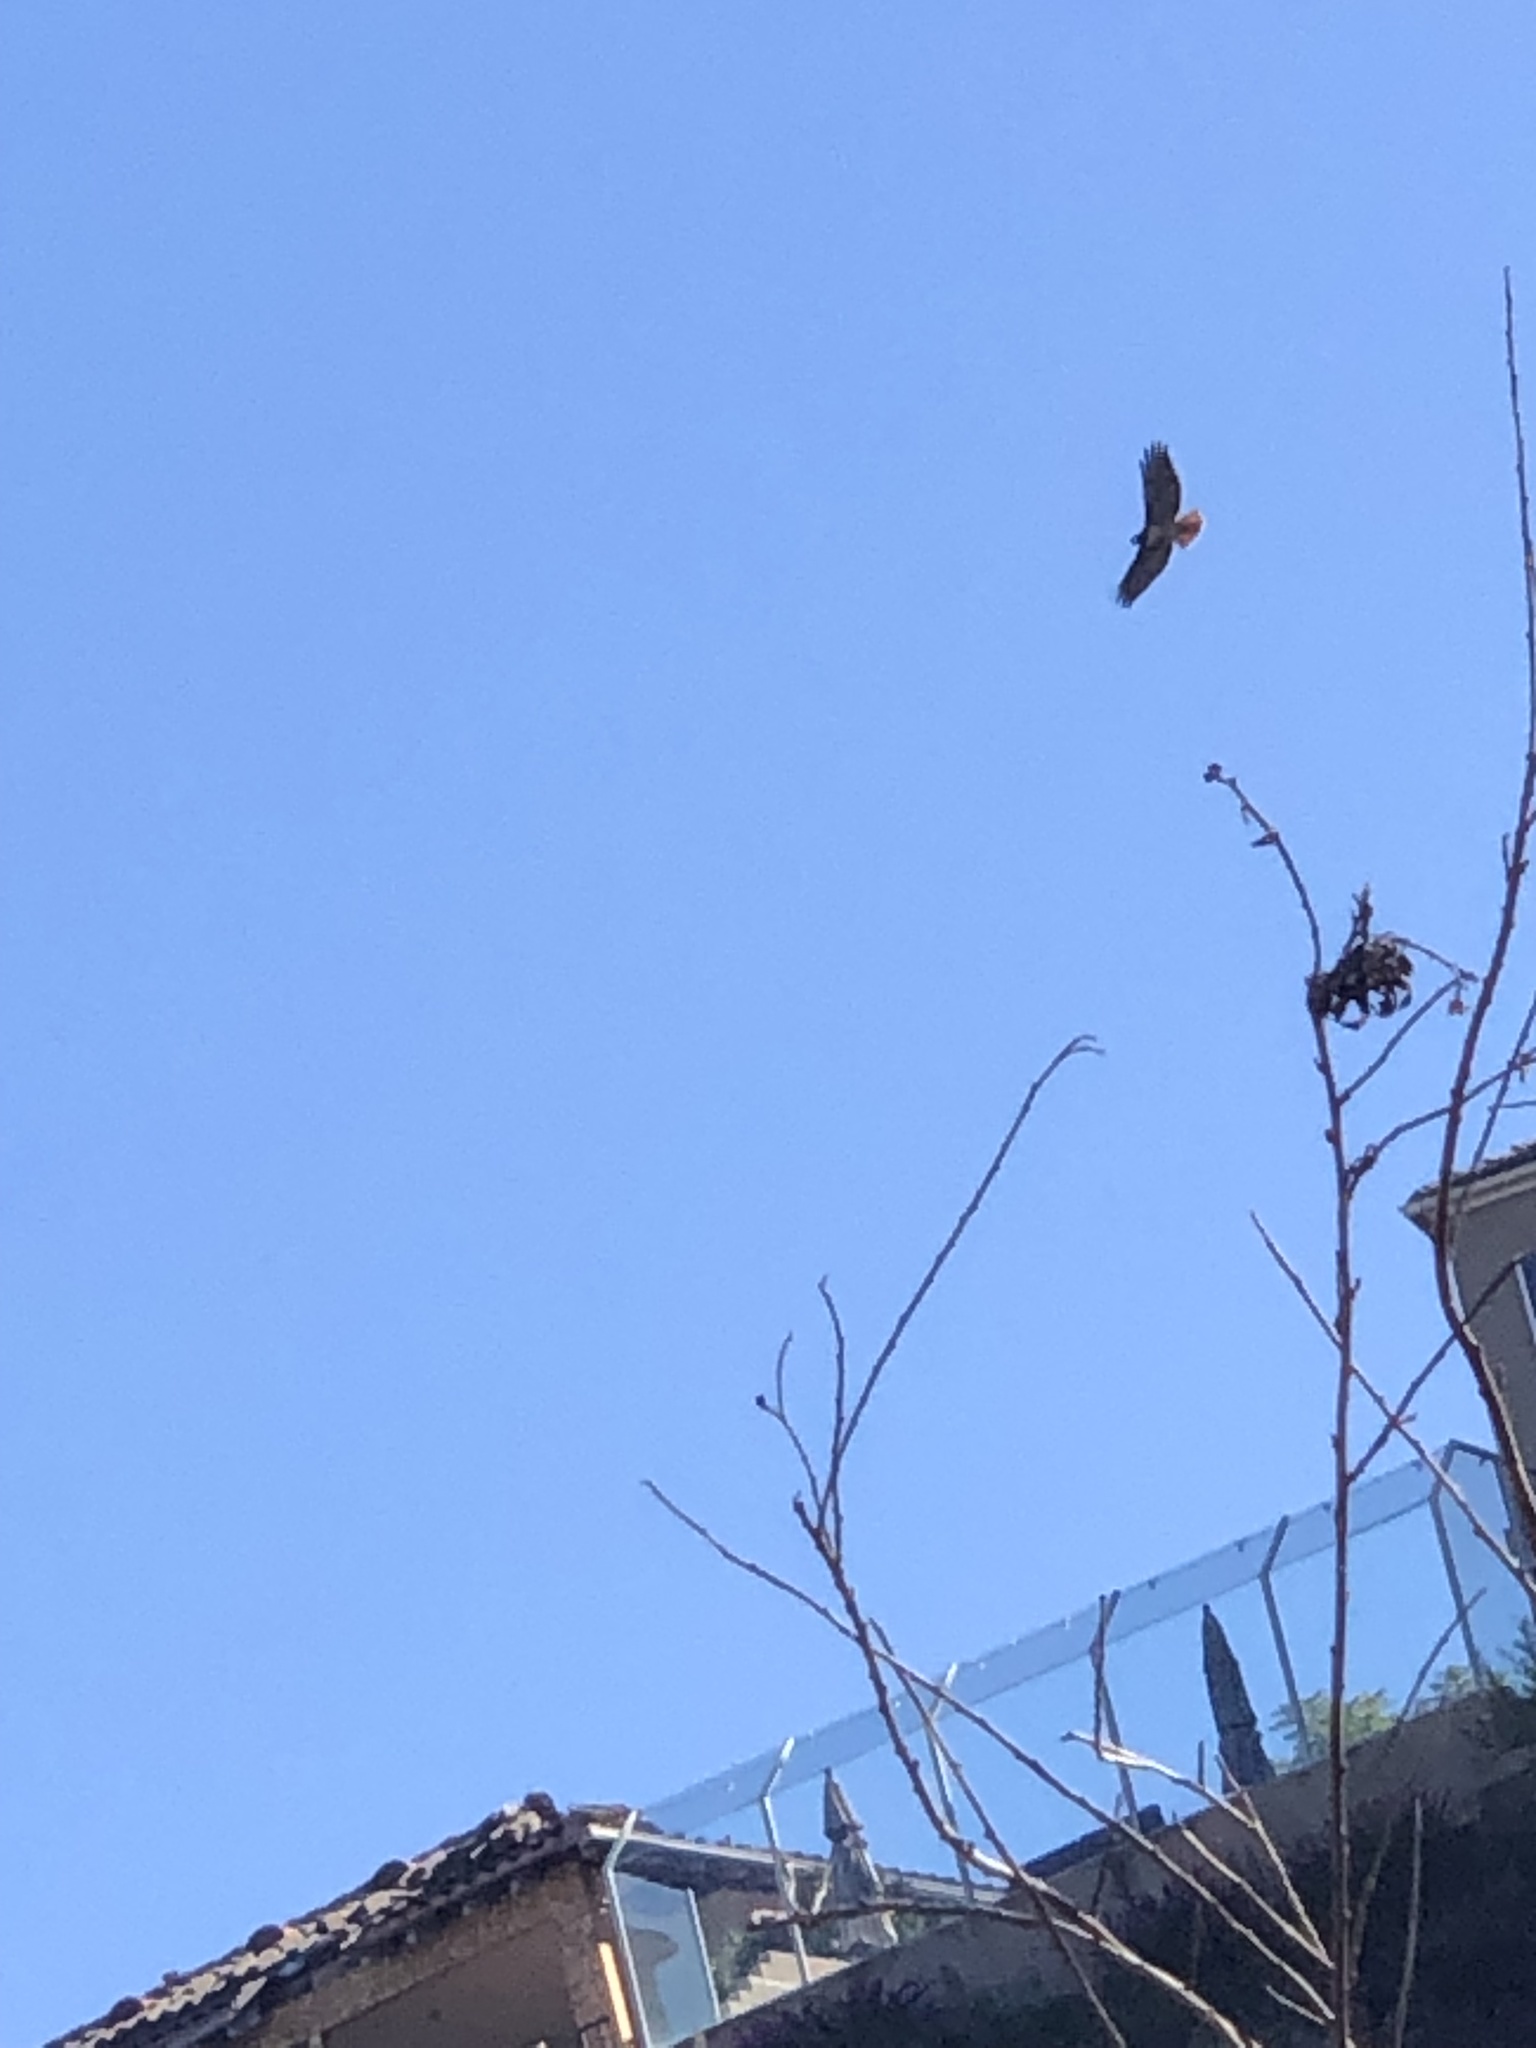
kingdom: Animalia
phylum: Chordata
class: Aves
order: Accipitriformes
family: Accipitridae
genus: Buteo
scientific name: Buteo jamaicensis
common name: Red-tailed hawk
